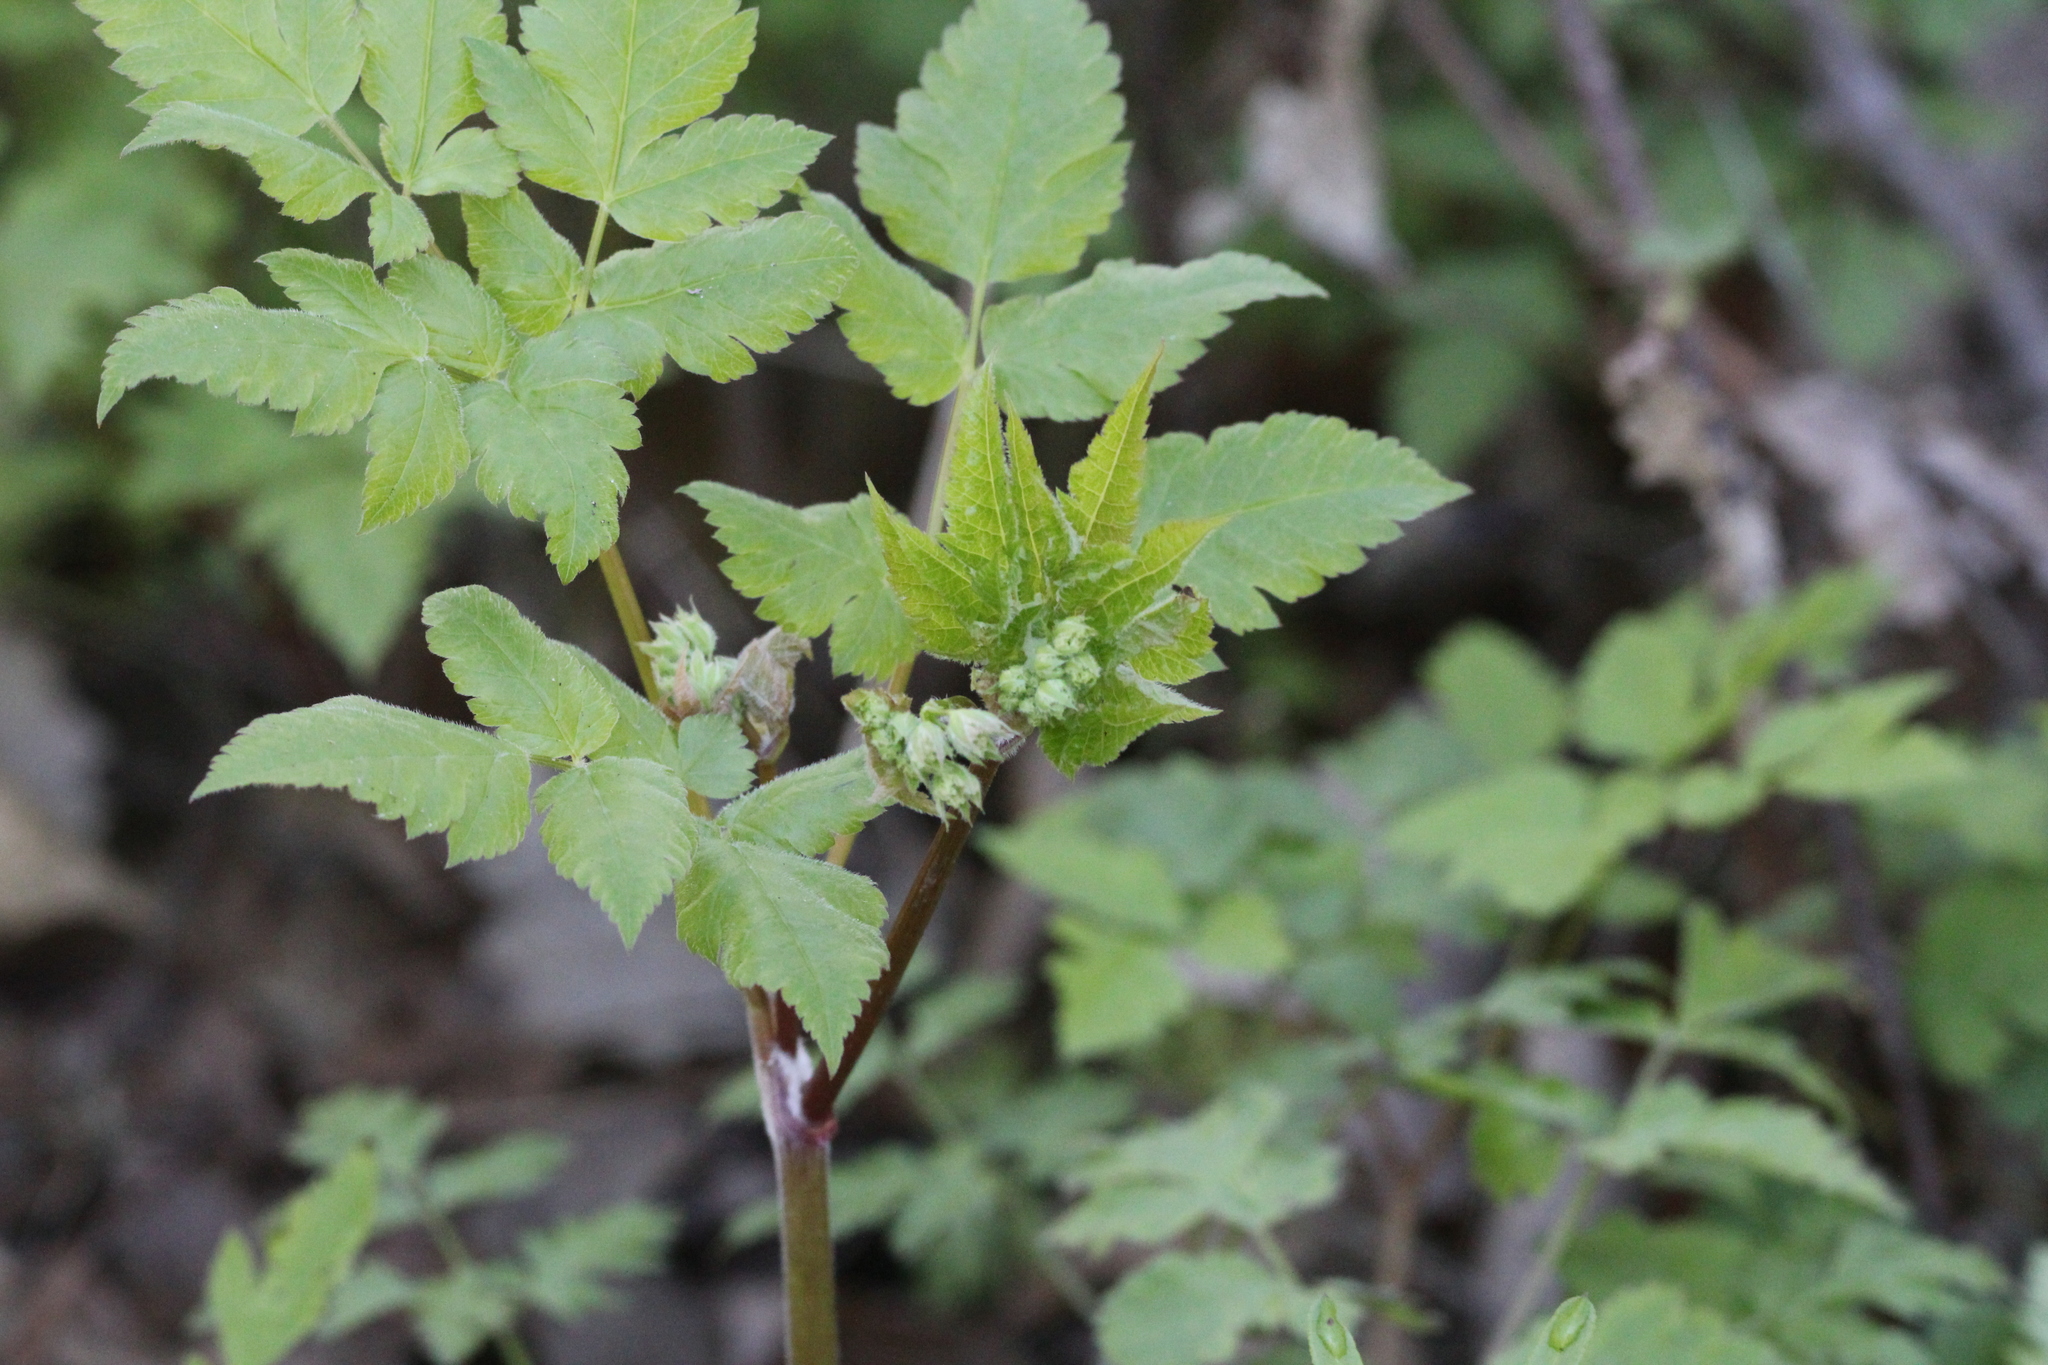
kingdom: Plantae
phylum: Tracheophyta
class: Magnoliopsida
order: Apiales
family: Apiaceae
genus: Osmorhiza
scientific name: Osmorhiza longistylis
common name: Smooth sweet cicely
